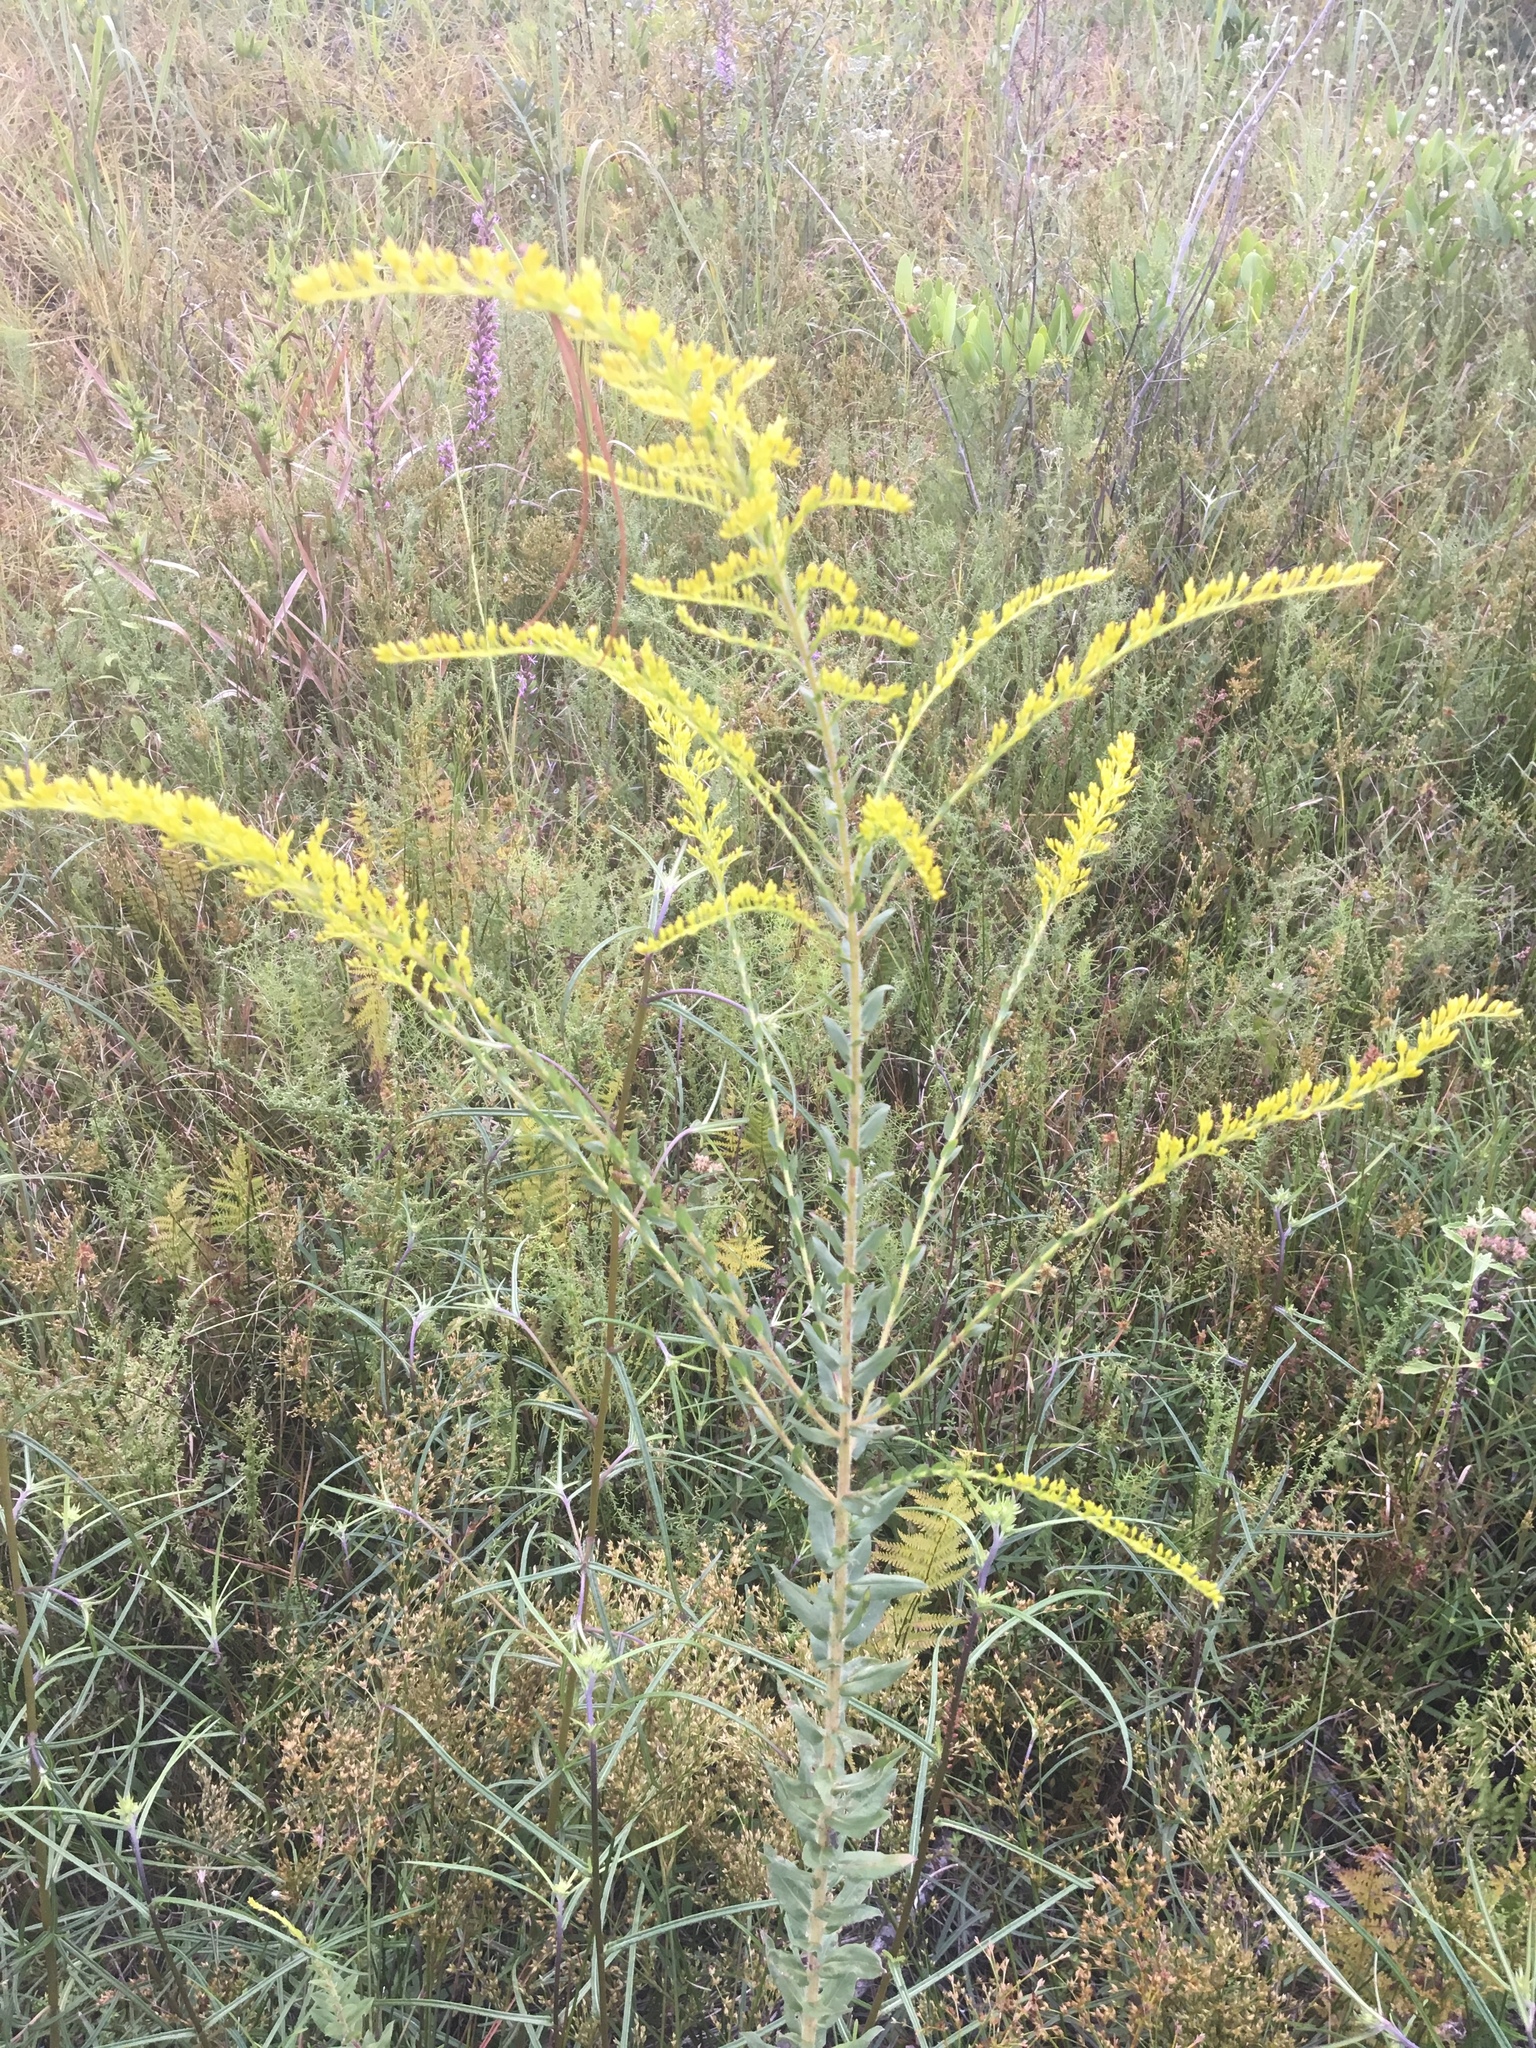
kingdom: Plantae
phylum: Tracheophyta
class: Magnoliopsida
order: Asterales
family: Asteraceae
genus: Solidago
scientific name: Solidago fistulosa
